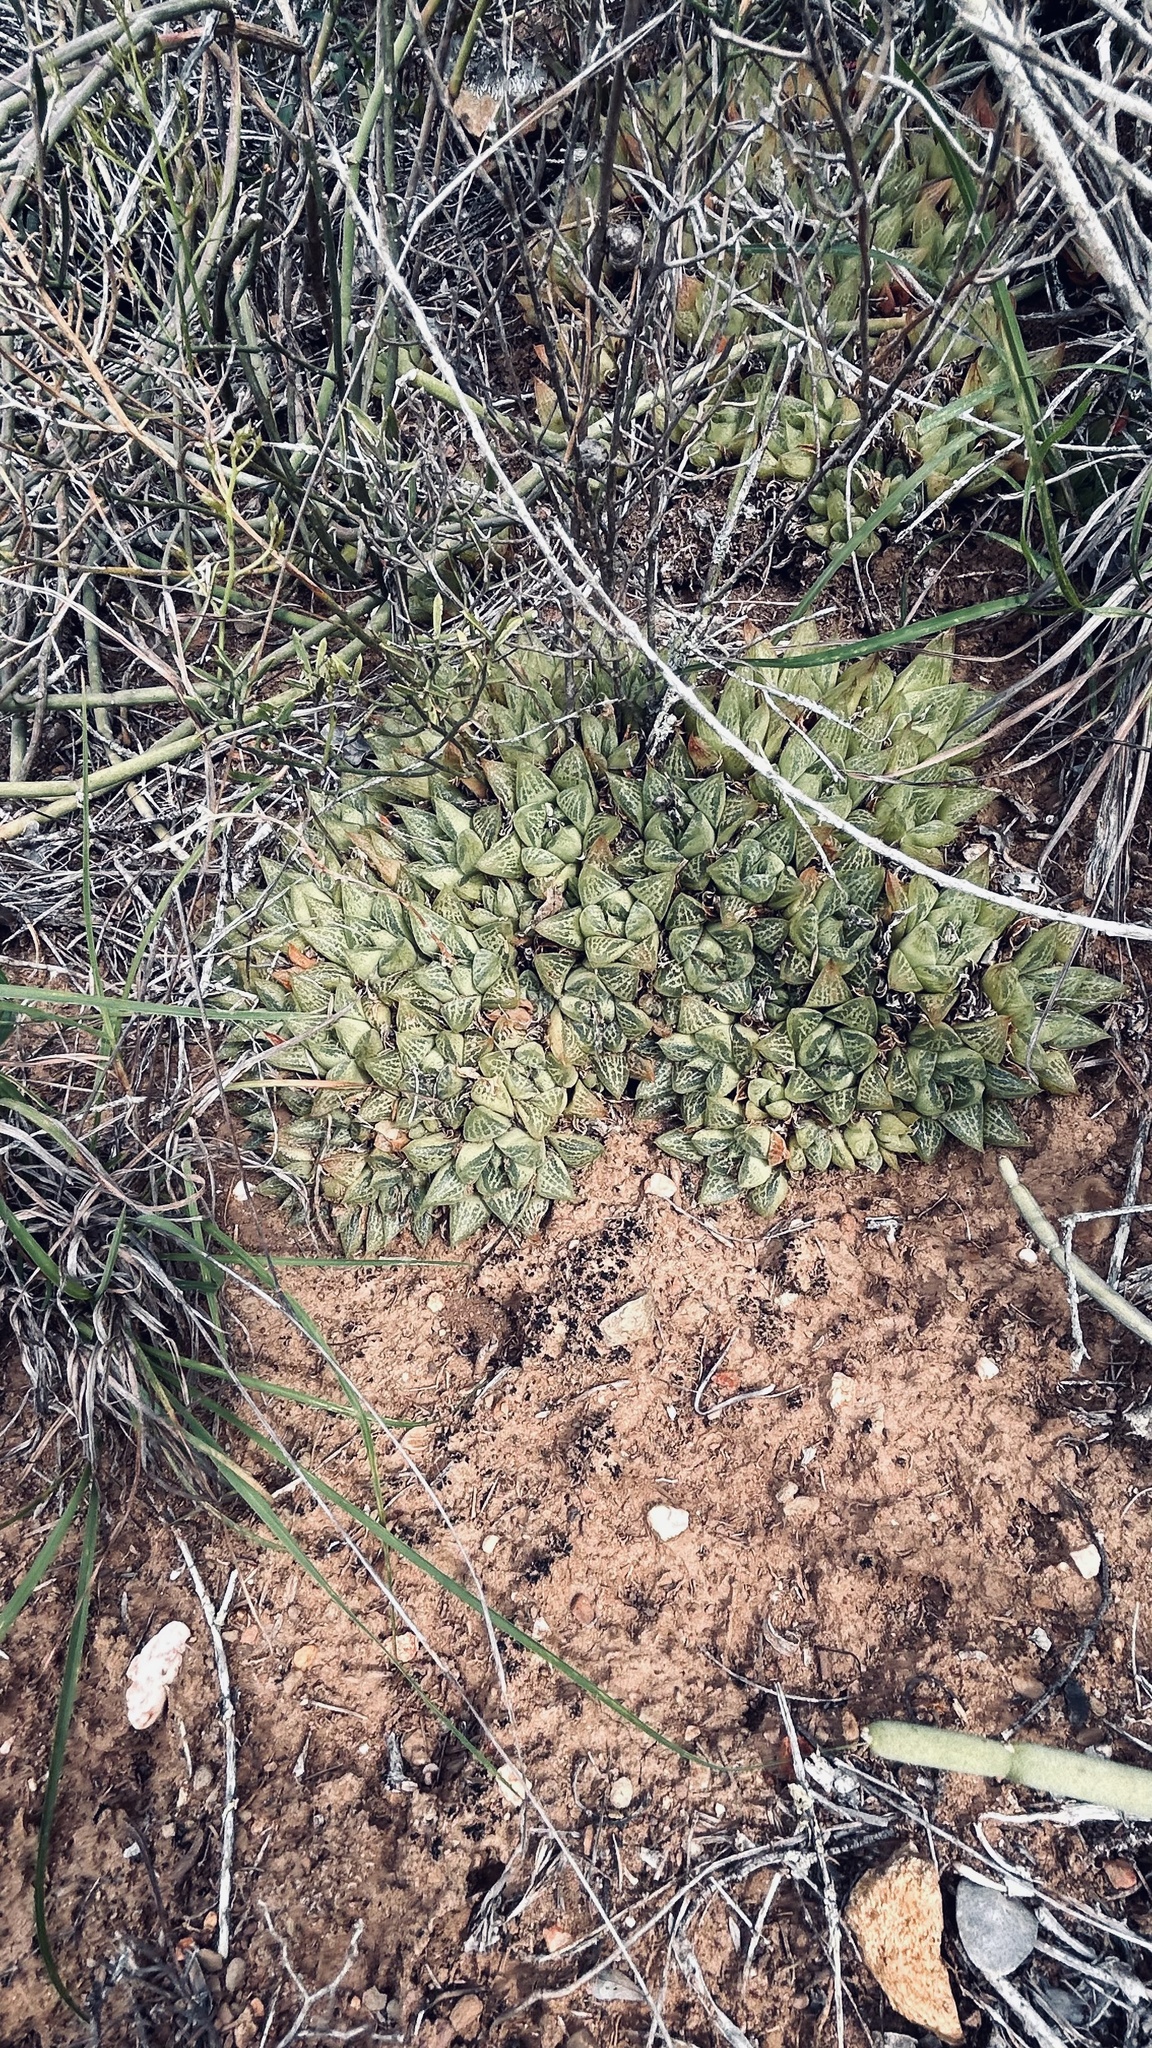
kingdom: Plantae
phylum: Tracheophyta
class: Liliopsida
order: Asparagales
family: Asphodelaceae
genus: Haworthia
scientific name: Haworthia turgida
